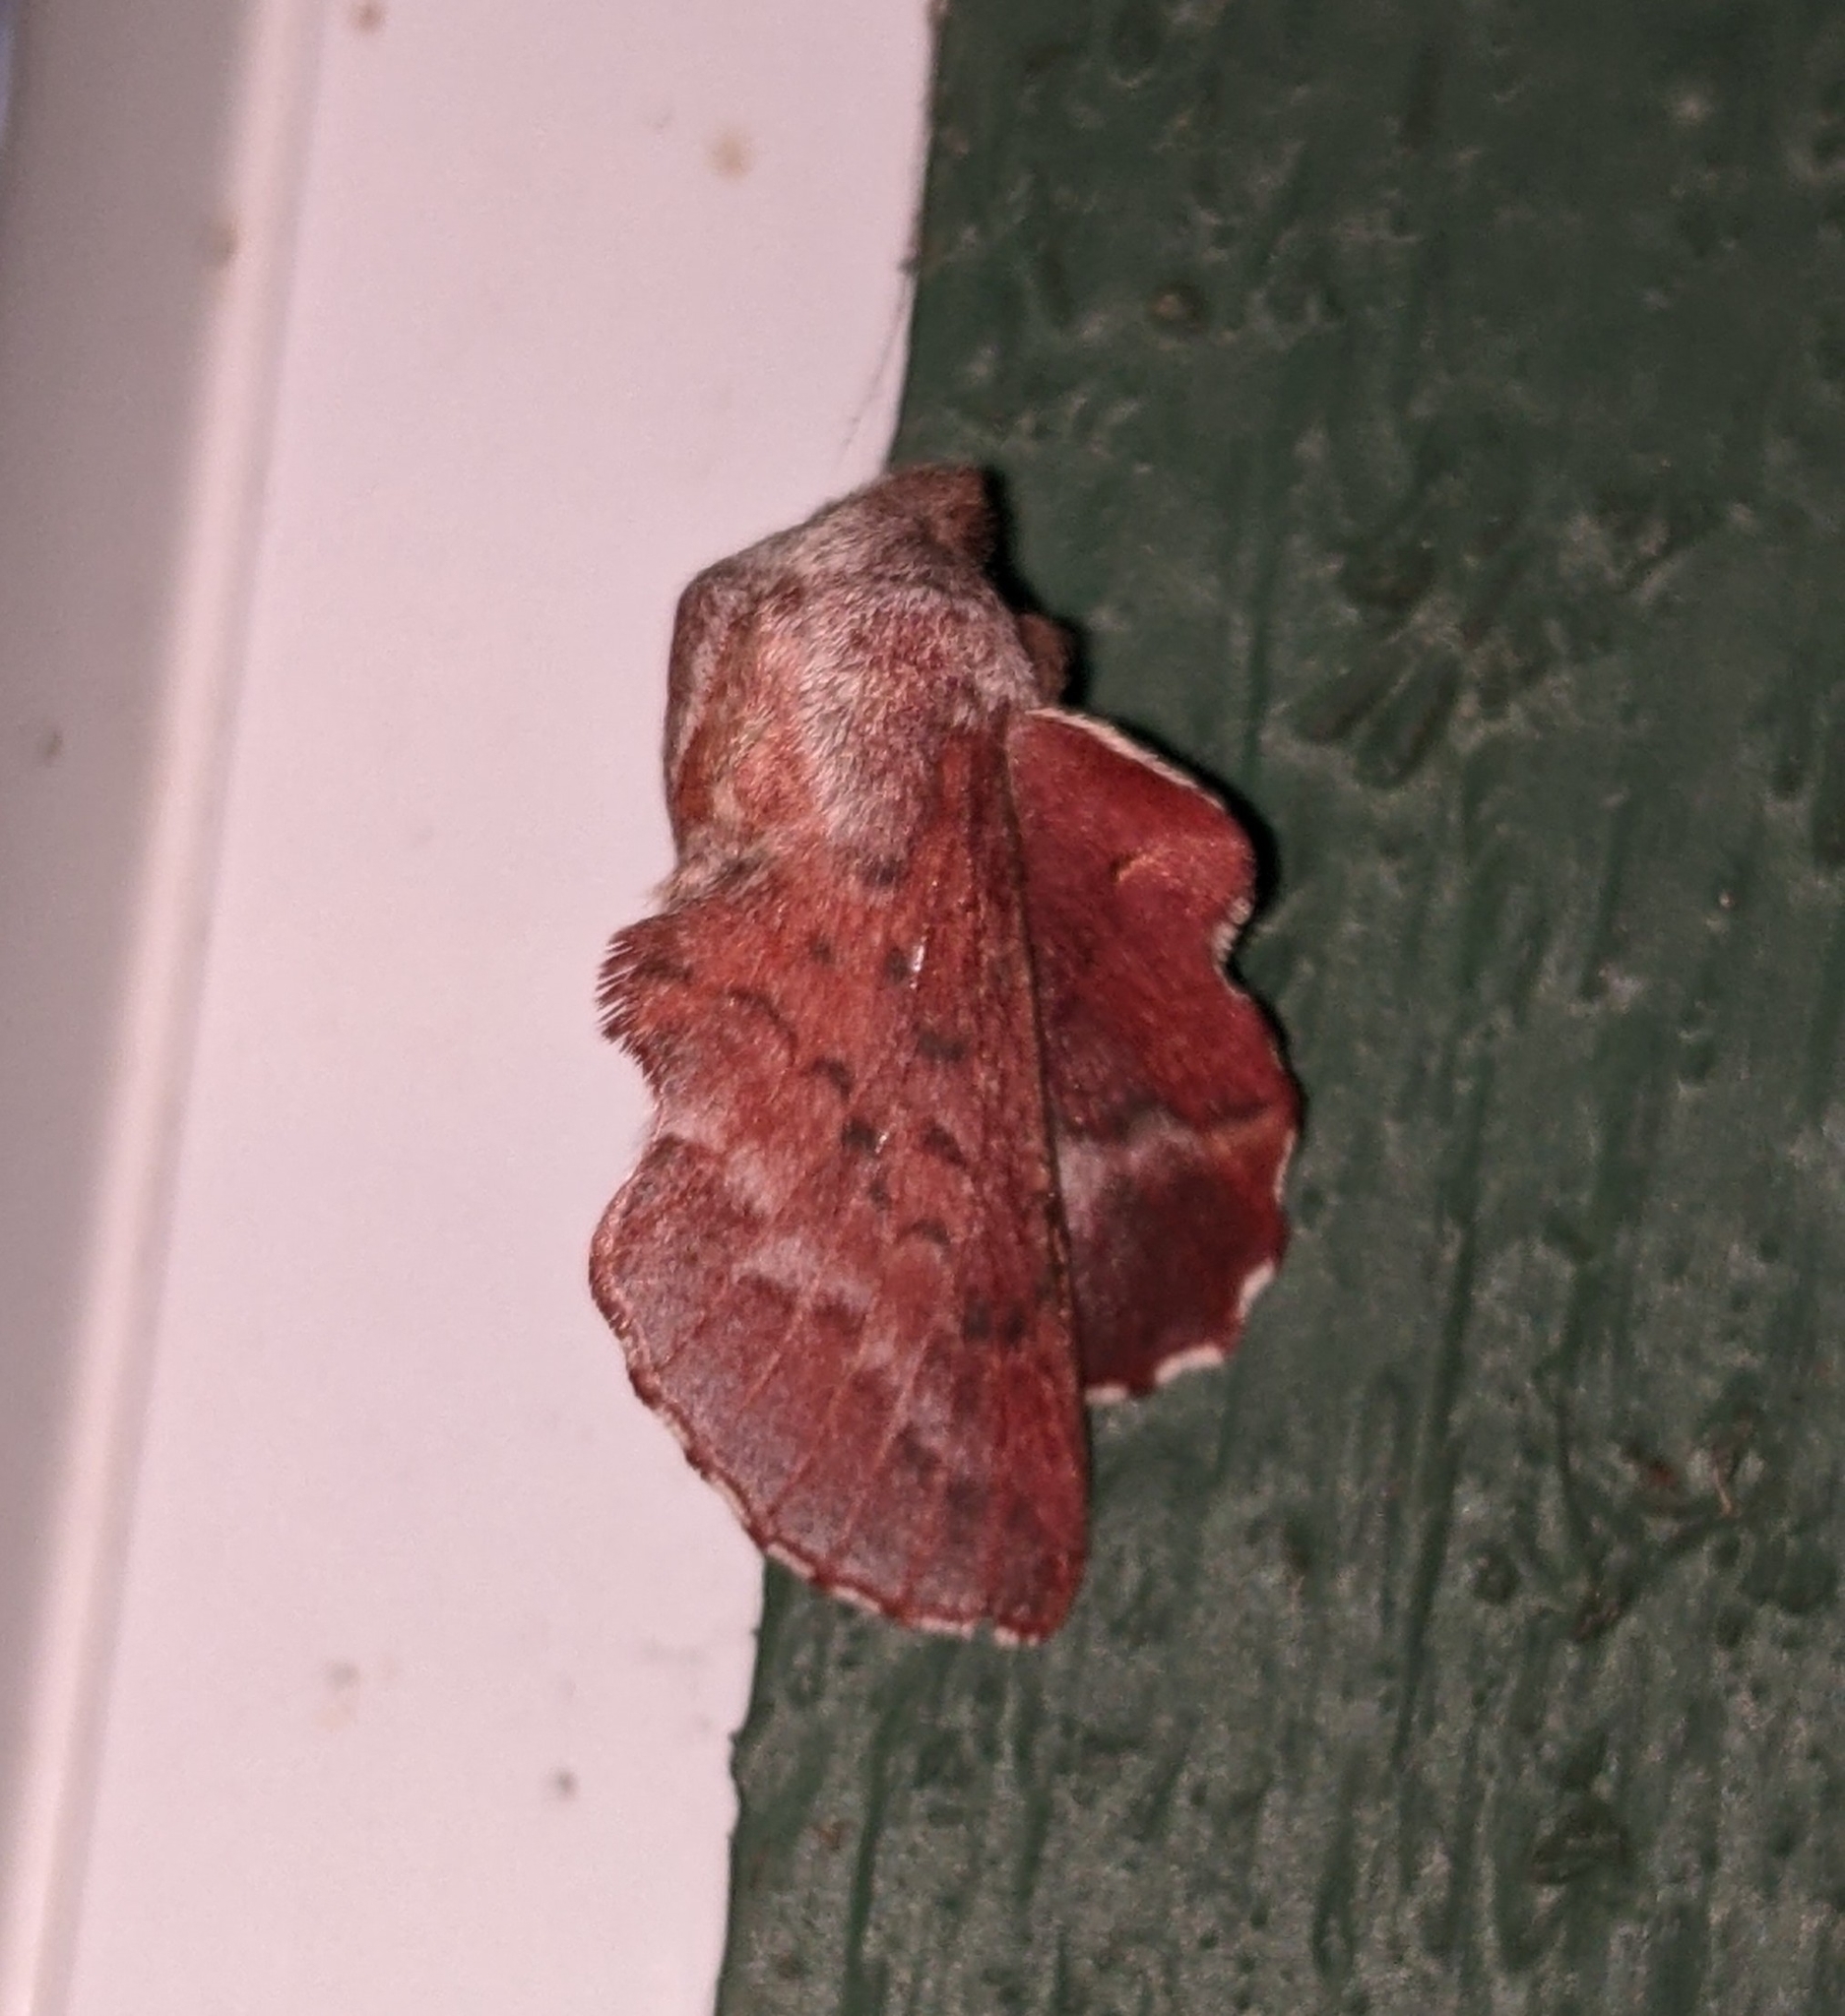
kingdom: Animalia
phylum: Arthropoda
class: Insecta
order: Lepidoptera
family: Lasiocampidae
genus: Phyllodesma
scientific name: Phyllodesma americana
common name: American lappet moth
